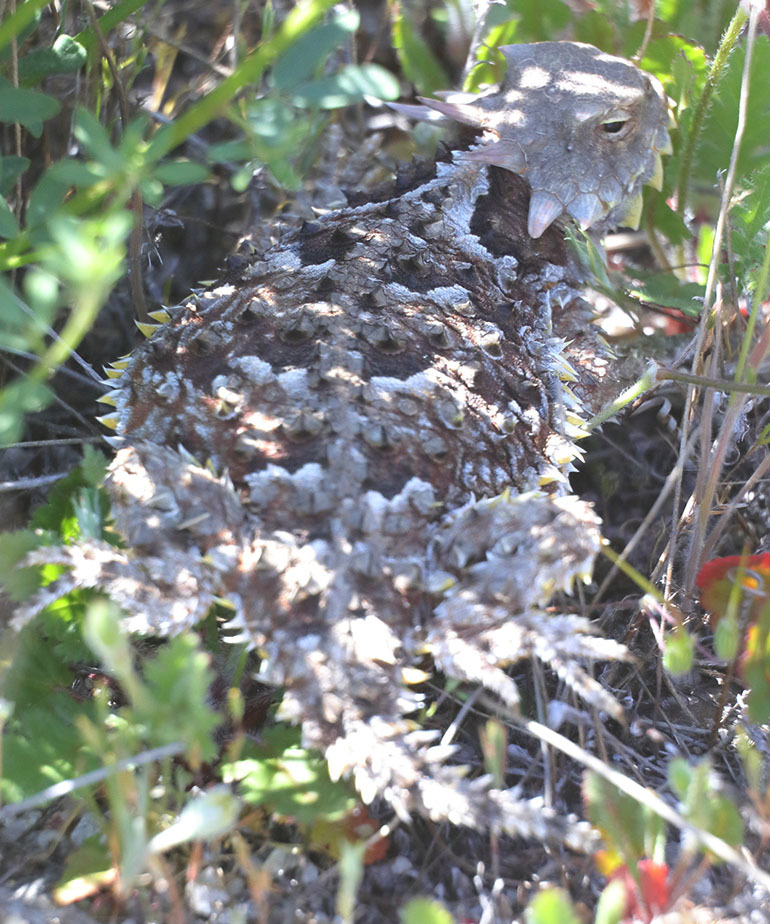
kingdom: Animalia
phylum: Chordata
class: Squamata
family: Phrynosomatidae
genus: Phrynosoma
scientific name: Phrynosoma blainvillii
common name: San diego horned lizard
